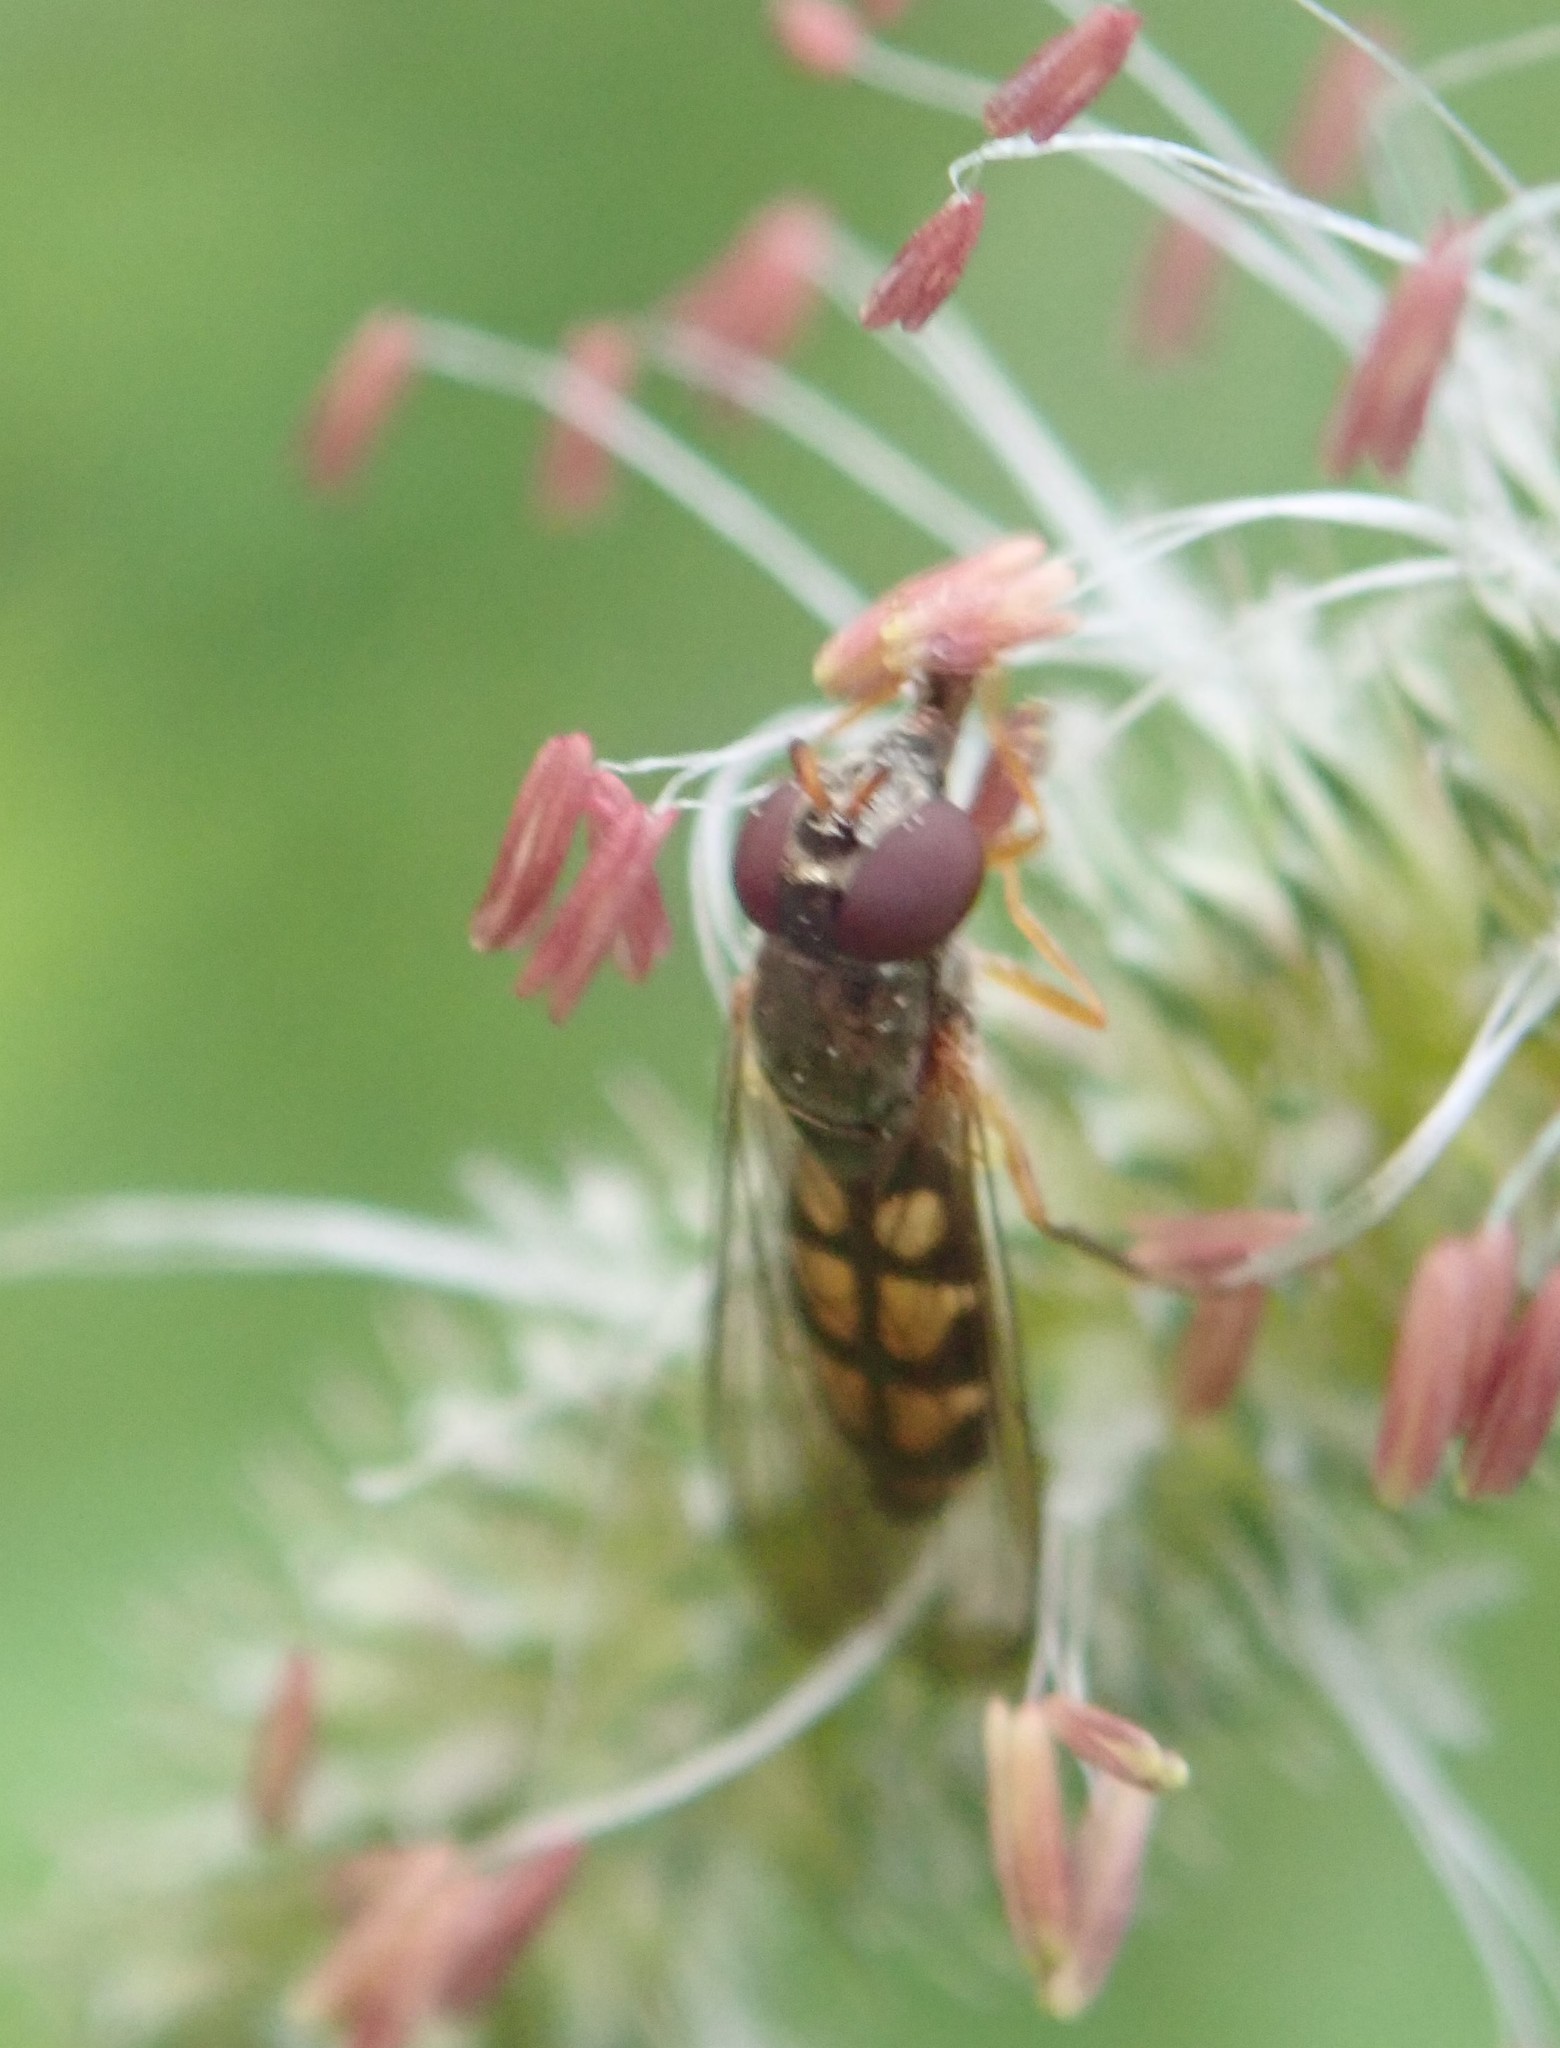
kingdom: Animalia
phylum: Arthropoda
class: Insecta
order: Diptera
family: Syrphidae
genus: Melanostoma
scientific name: Melanostoma mellina
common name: Hover fly
